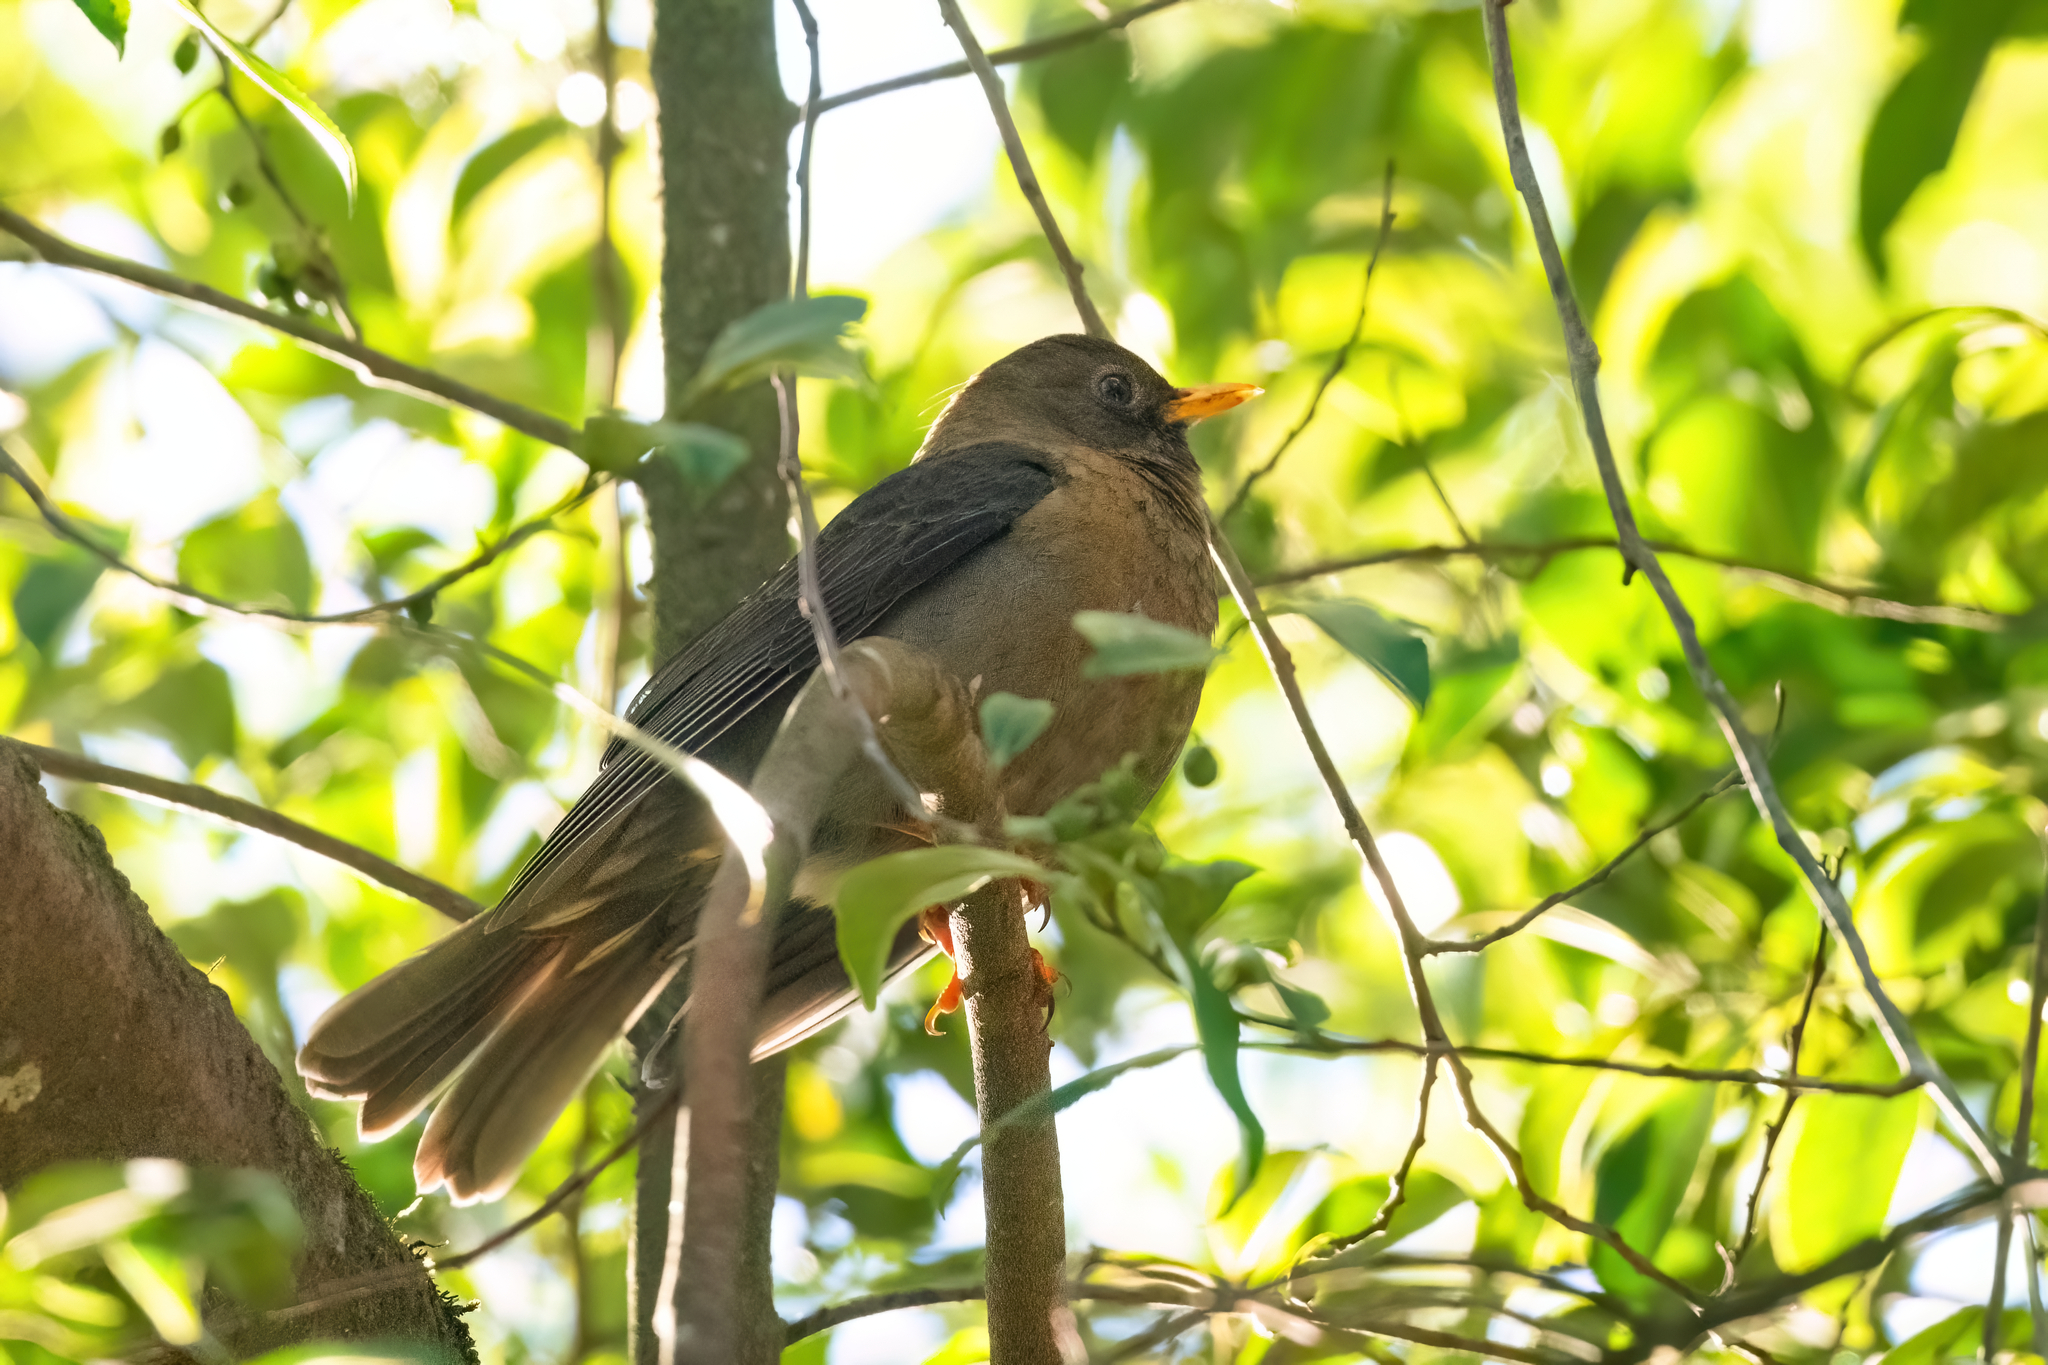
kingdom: Animalia
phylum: Chordata
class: Aves
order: Passeriformes
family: Turdidae
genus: Turdus
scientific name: Turdus rufitorques
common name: Rufous-collared thrush
